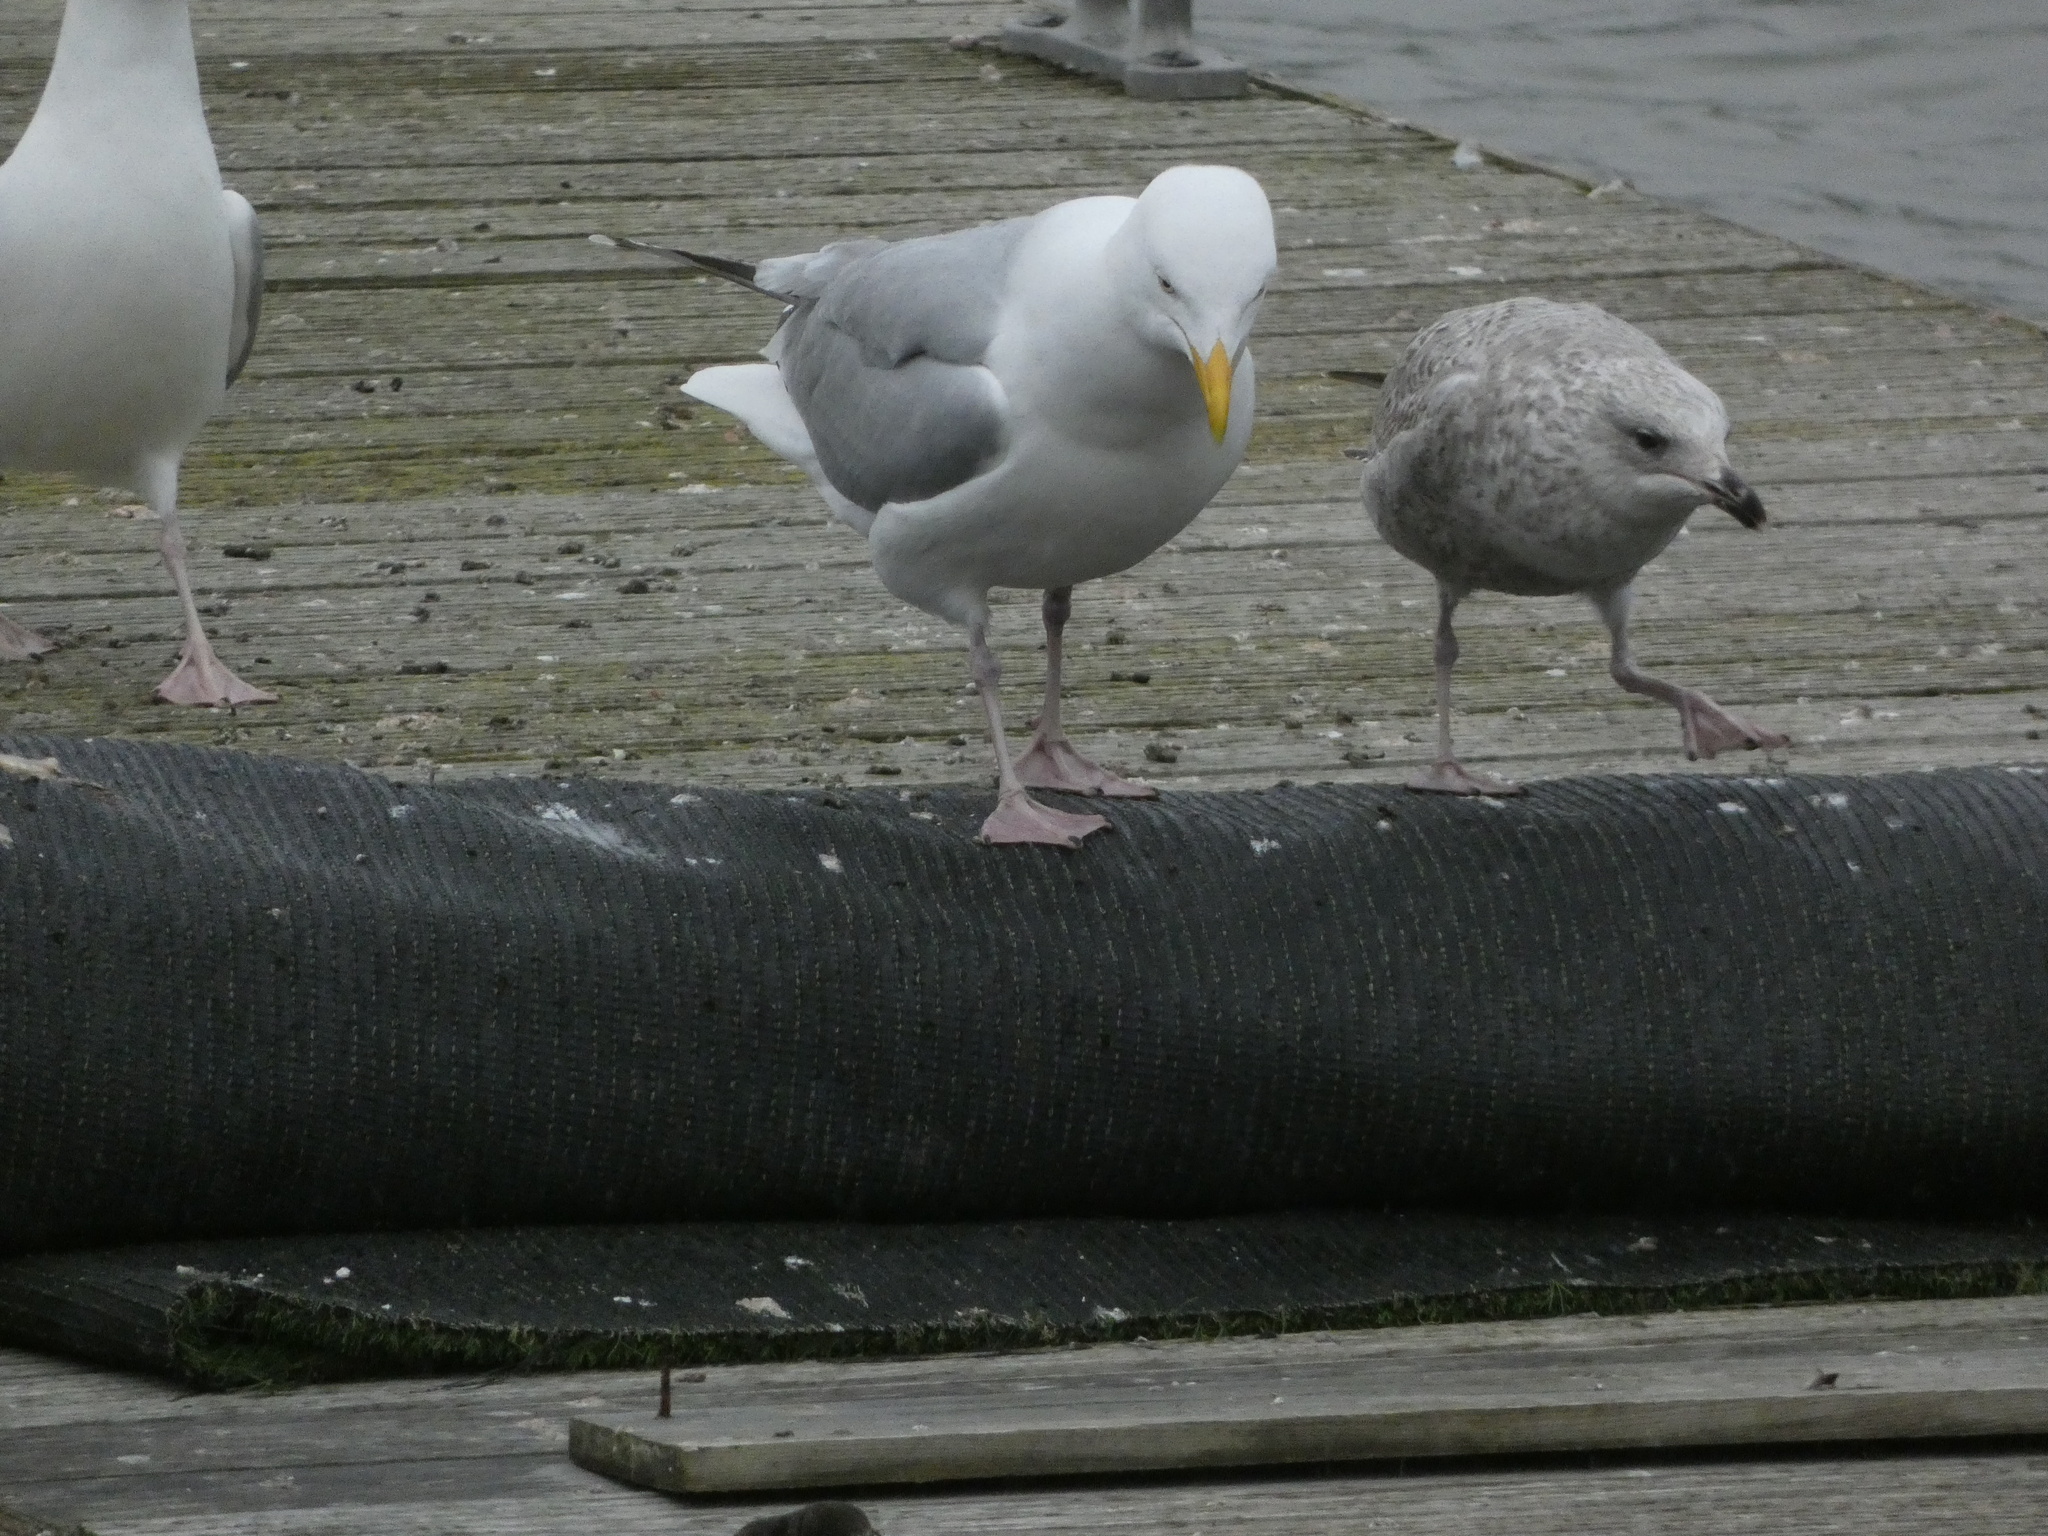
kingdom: Animalia
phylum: Chordata
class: Aves
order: Charadriiformes
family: Laridae
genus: Larus
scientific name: Larus argentatus
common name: Herring gull
